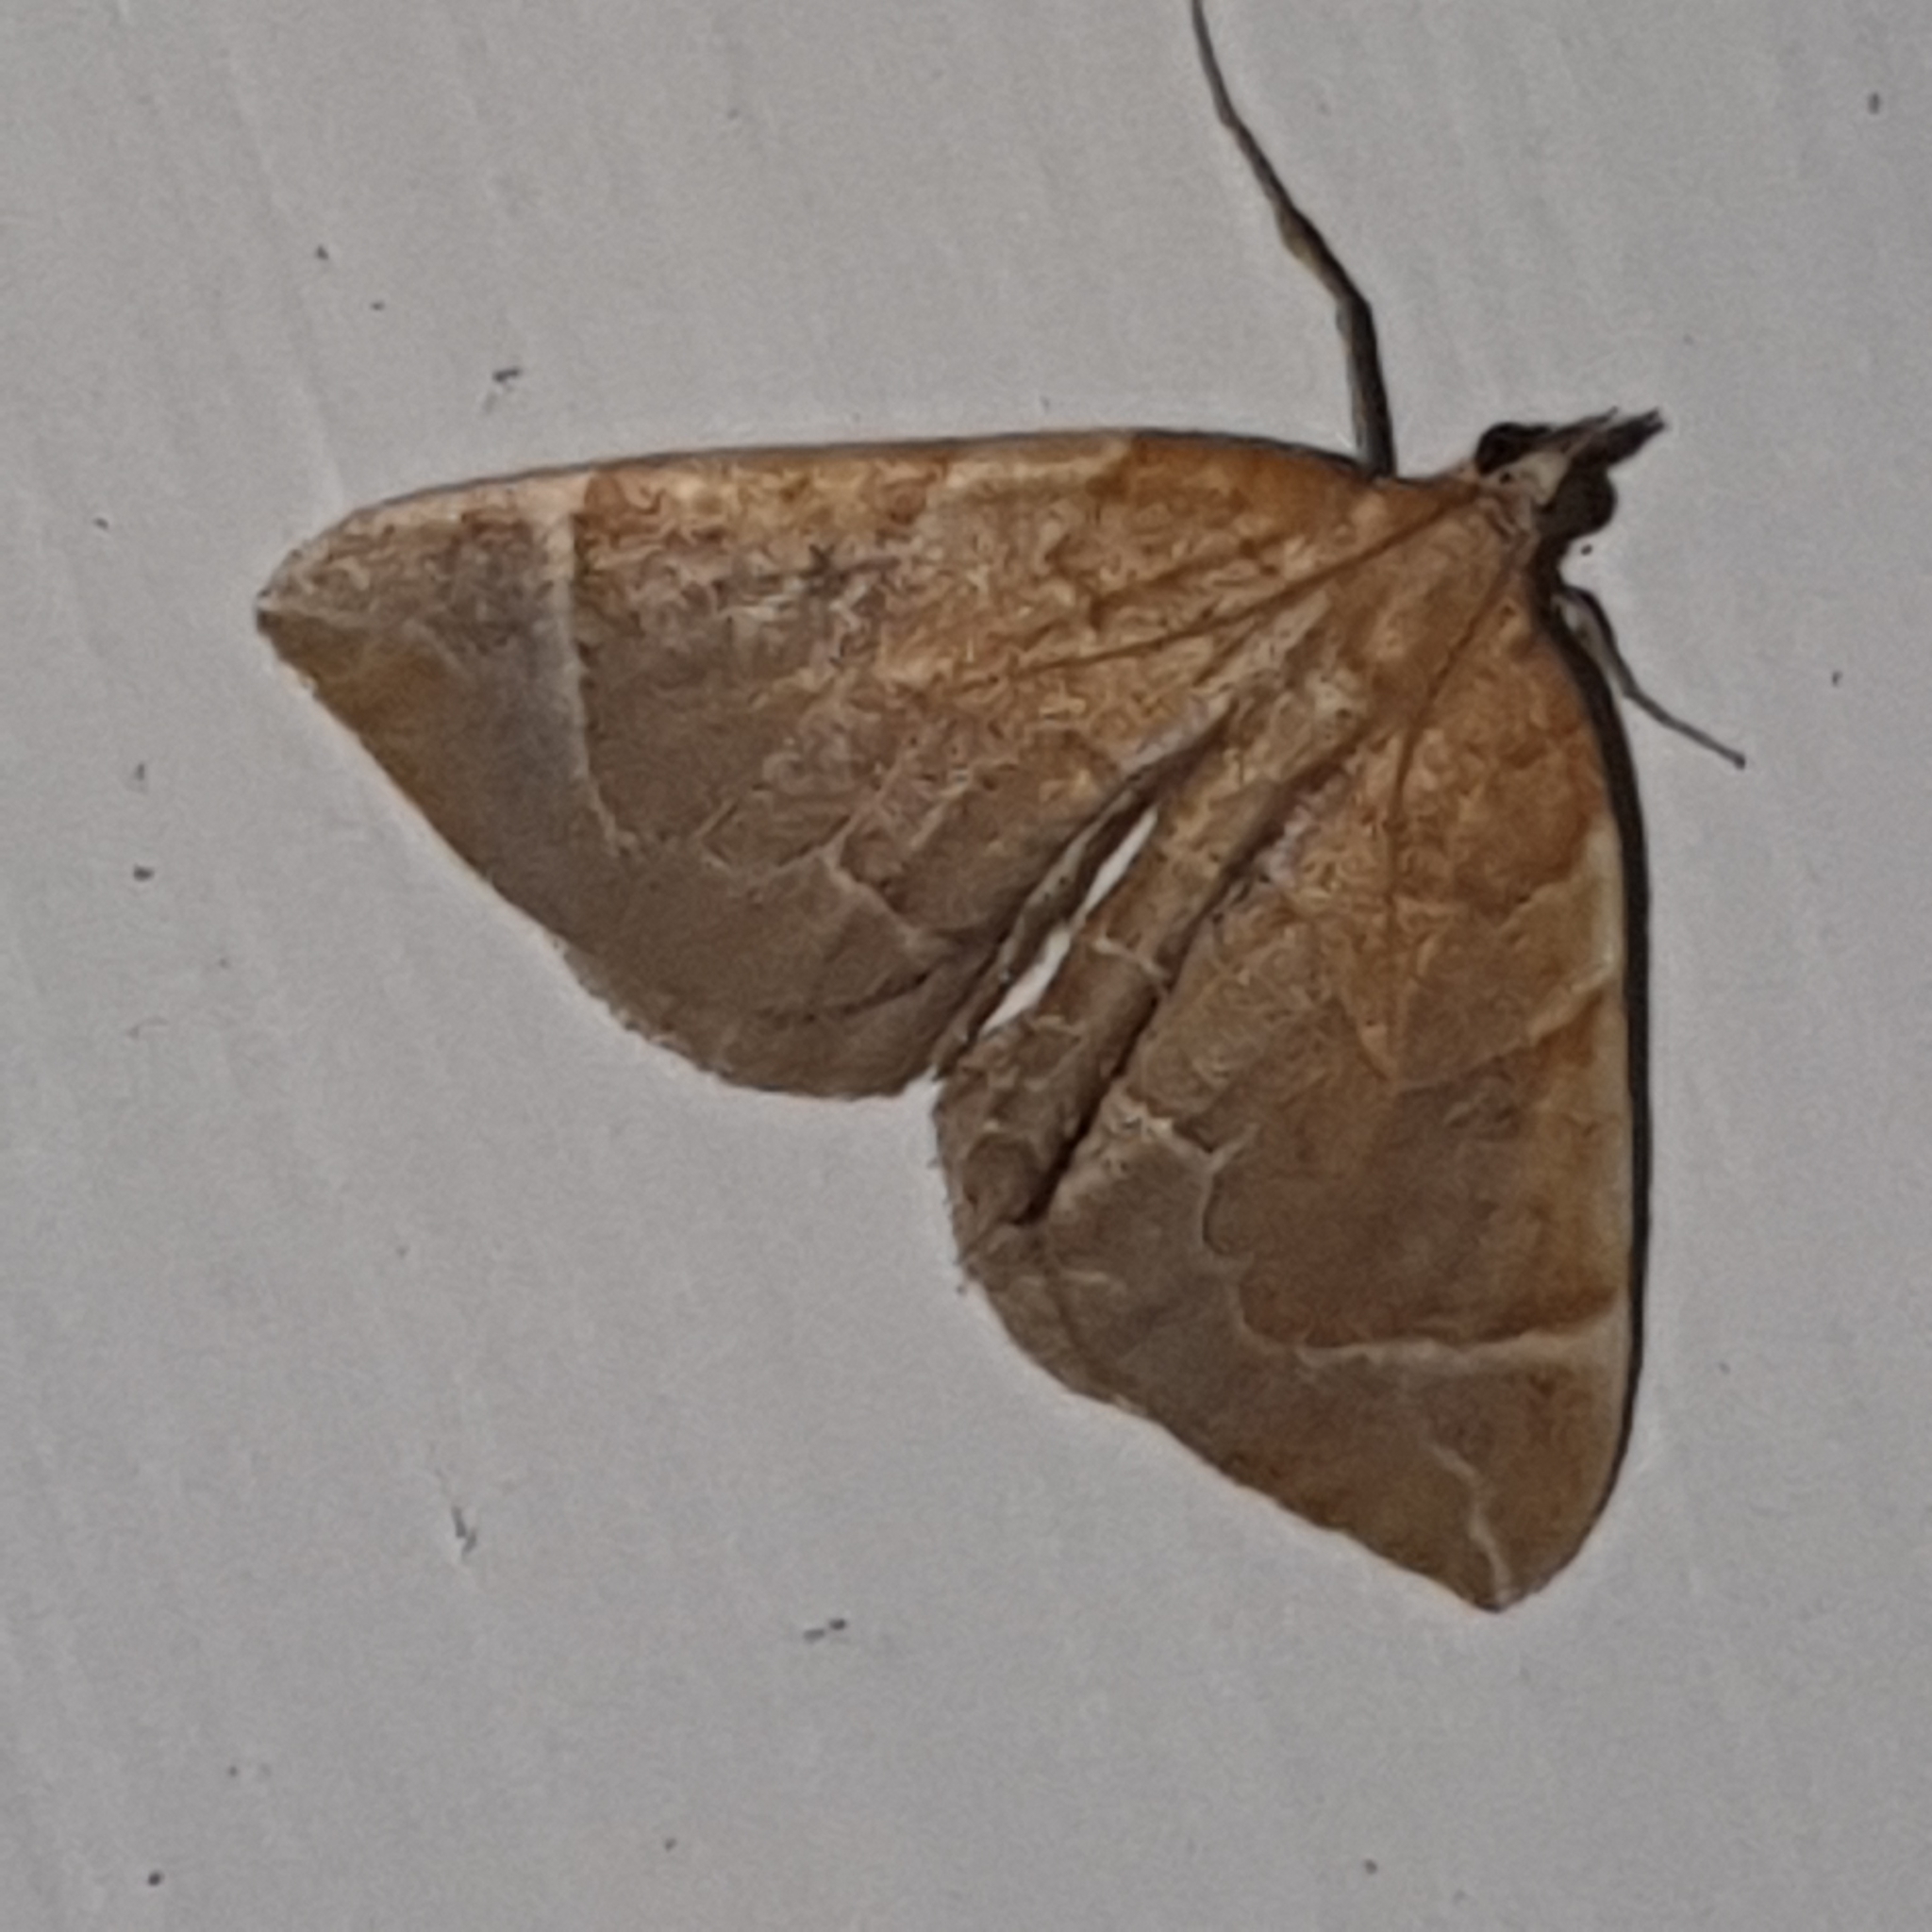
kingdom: Animalia
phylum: Arthropoda
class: Insecta
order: Lepidoptera
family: Geometridae
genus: Eulithis
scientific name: Eulithis testata
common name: Chevron
